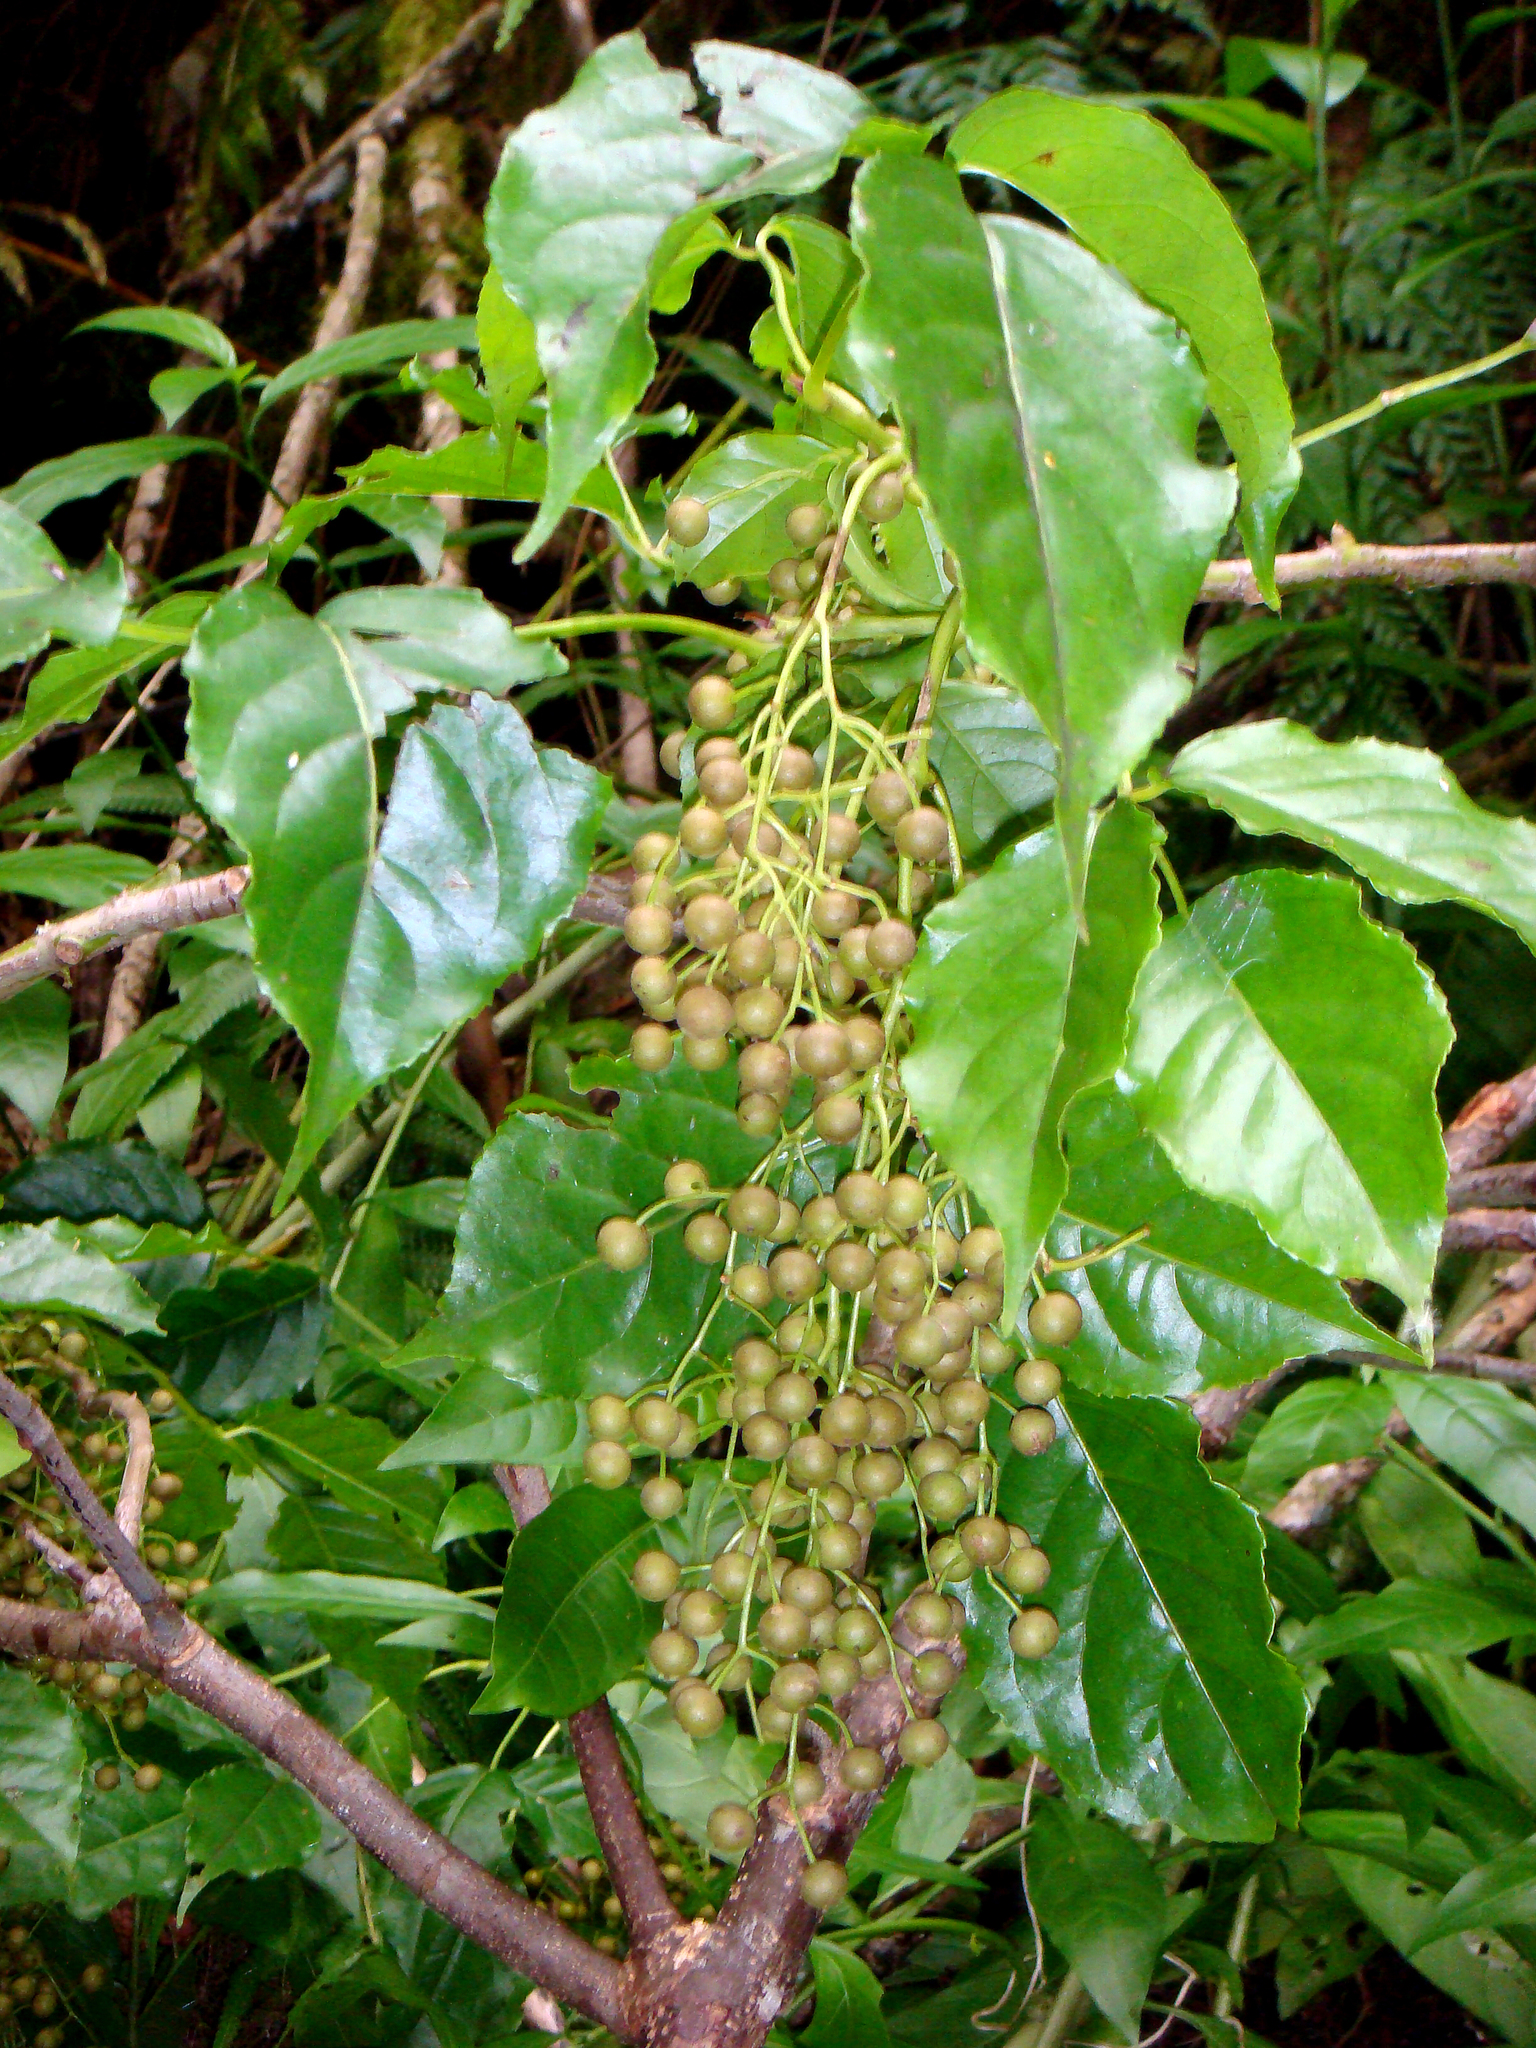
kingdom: Plantae
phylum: Tracheophyta
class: Magnoliopsida
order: Malpighiales
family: Phyllanthaceae
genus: Bischofia
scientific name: Bischofia javanica
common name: Javanese bishopwood
